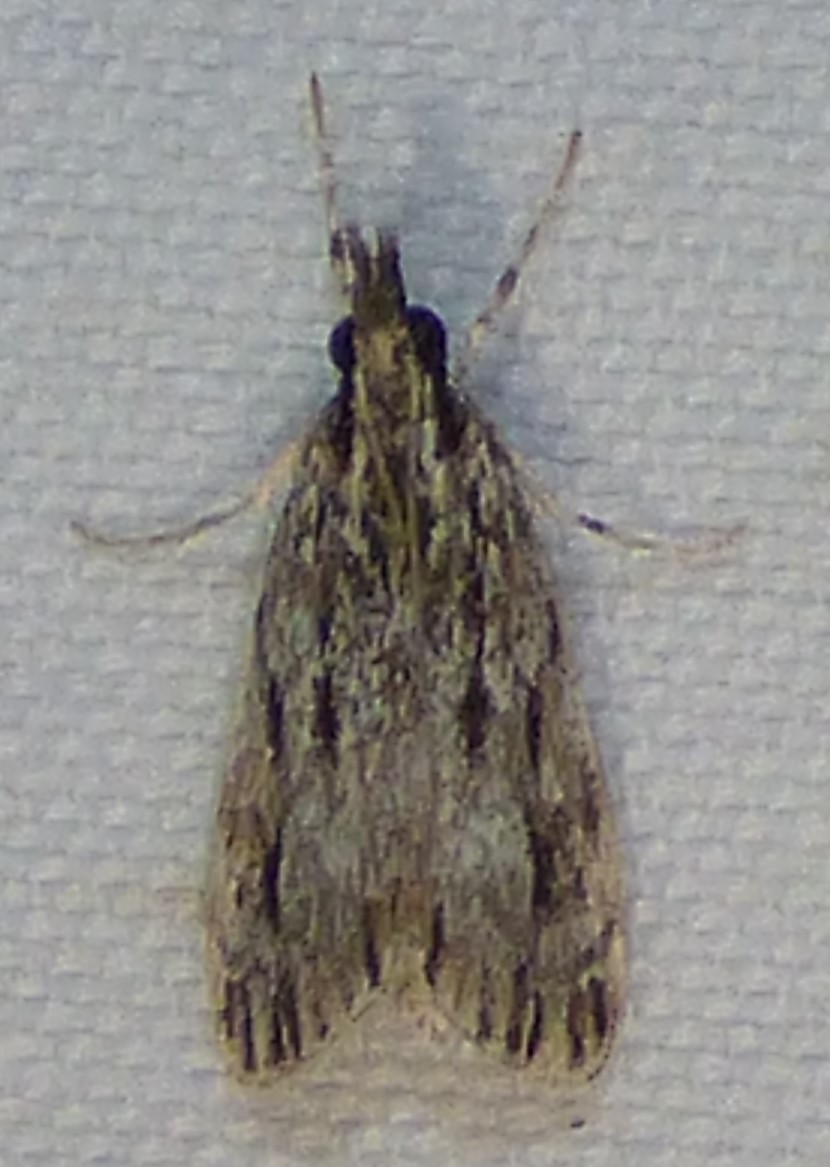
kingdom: Animalia
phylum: Arthropoda
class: Insecta
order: Lepidoptera
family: Crambidae
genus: Eudonia
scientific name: Eudonia strigalis
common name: Striped eudonia moth
